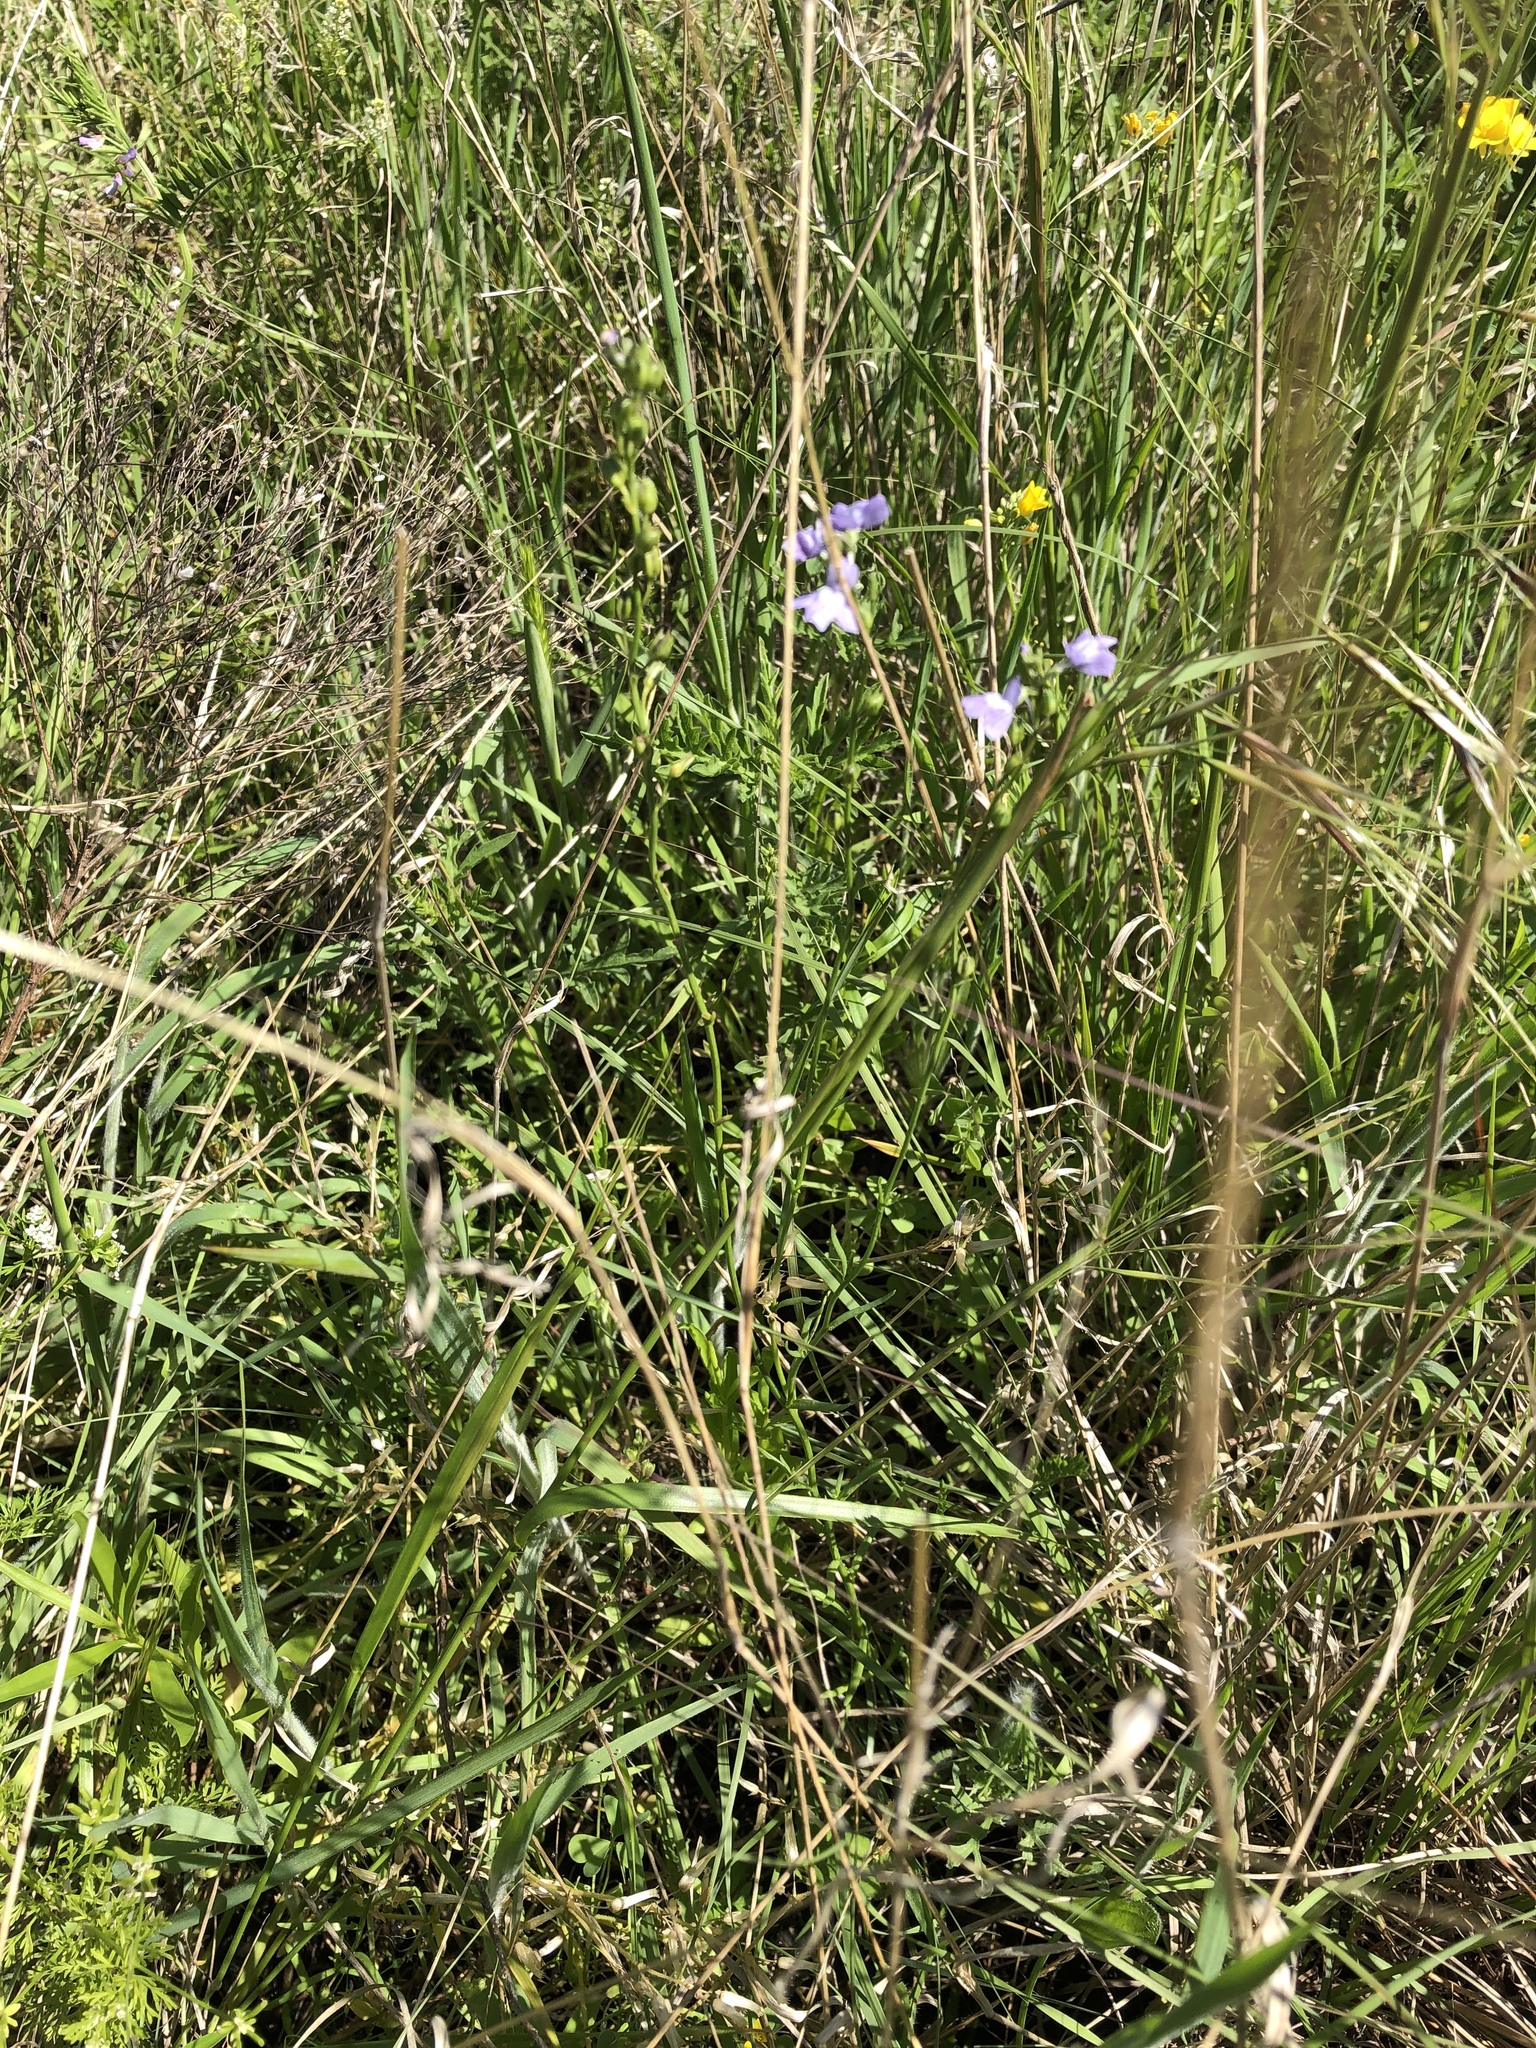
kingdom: Plantae
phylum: Tracheophyta
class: Magnoliopsida
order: Lamiales
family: Plantaginaceae
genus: Nuttallanthus
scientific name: Nuttallanthus texanus
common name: Texas toadflax
